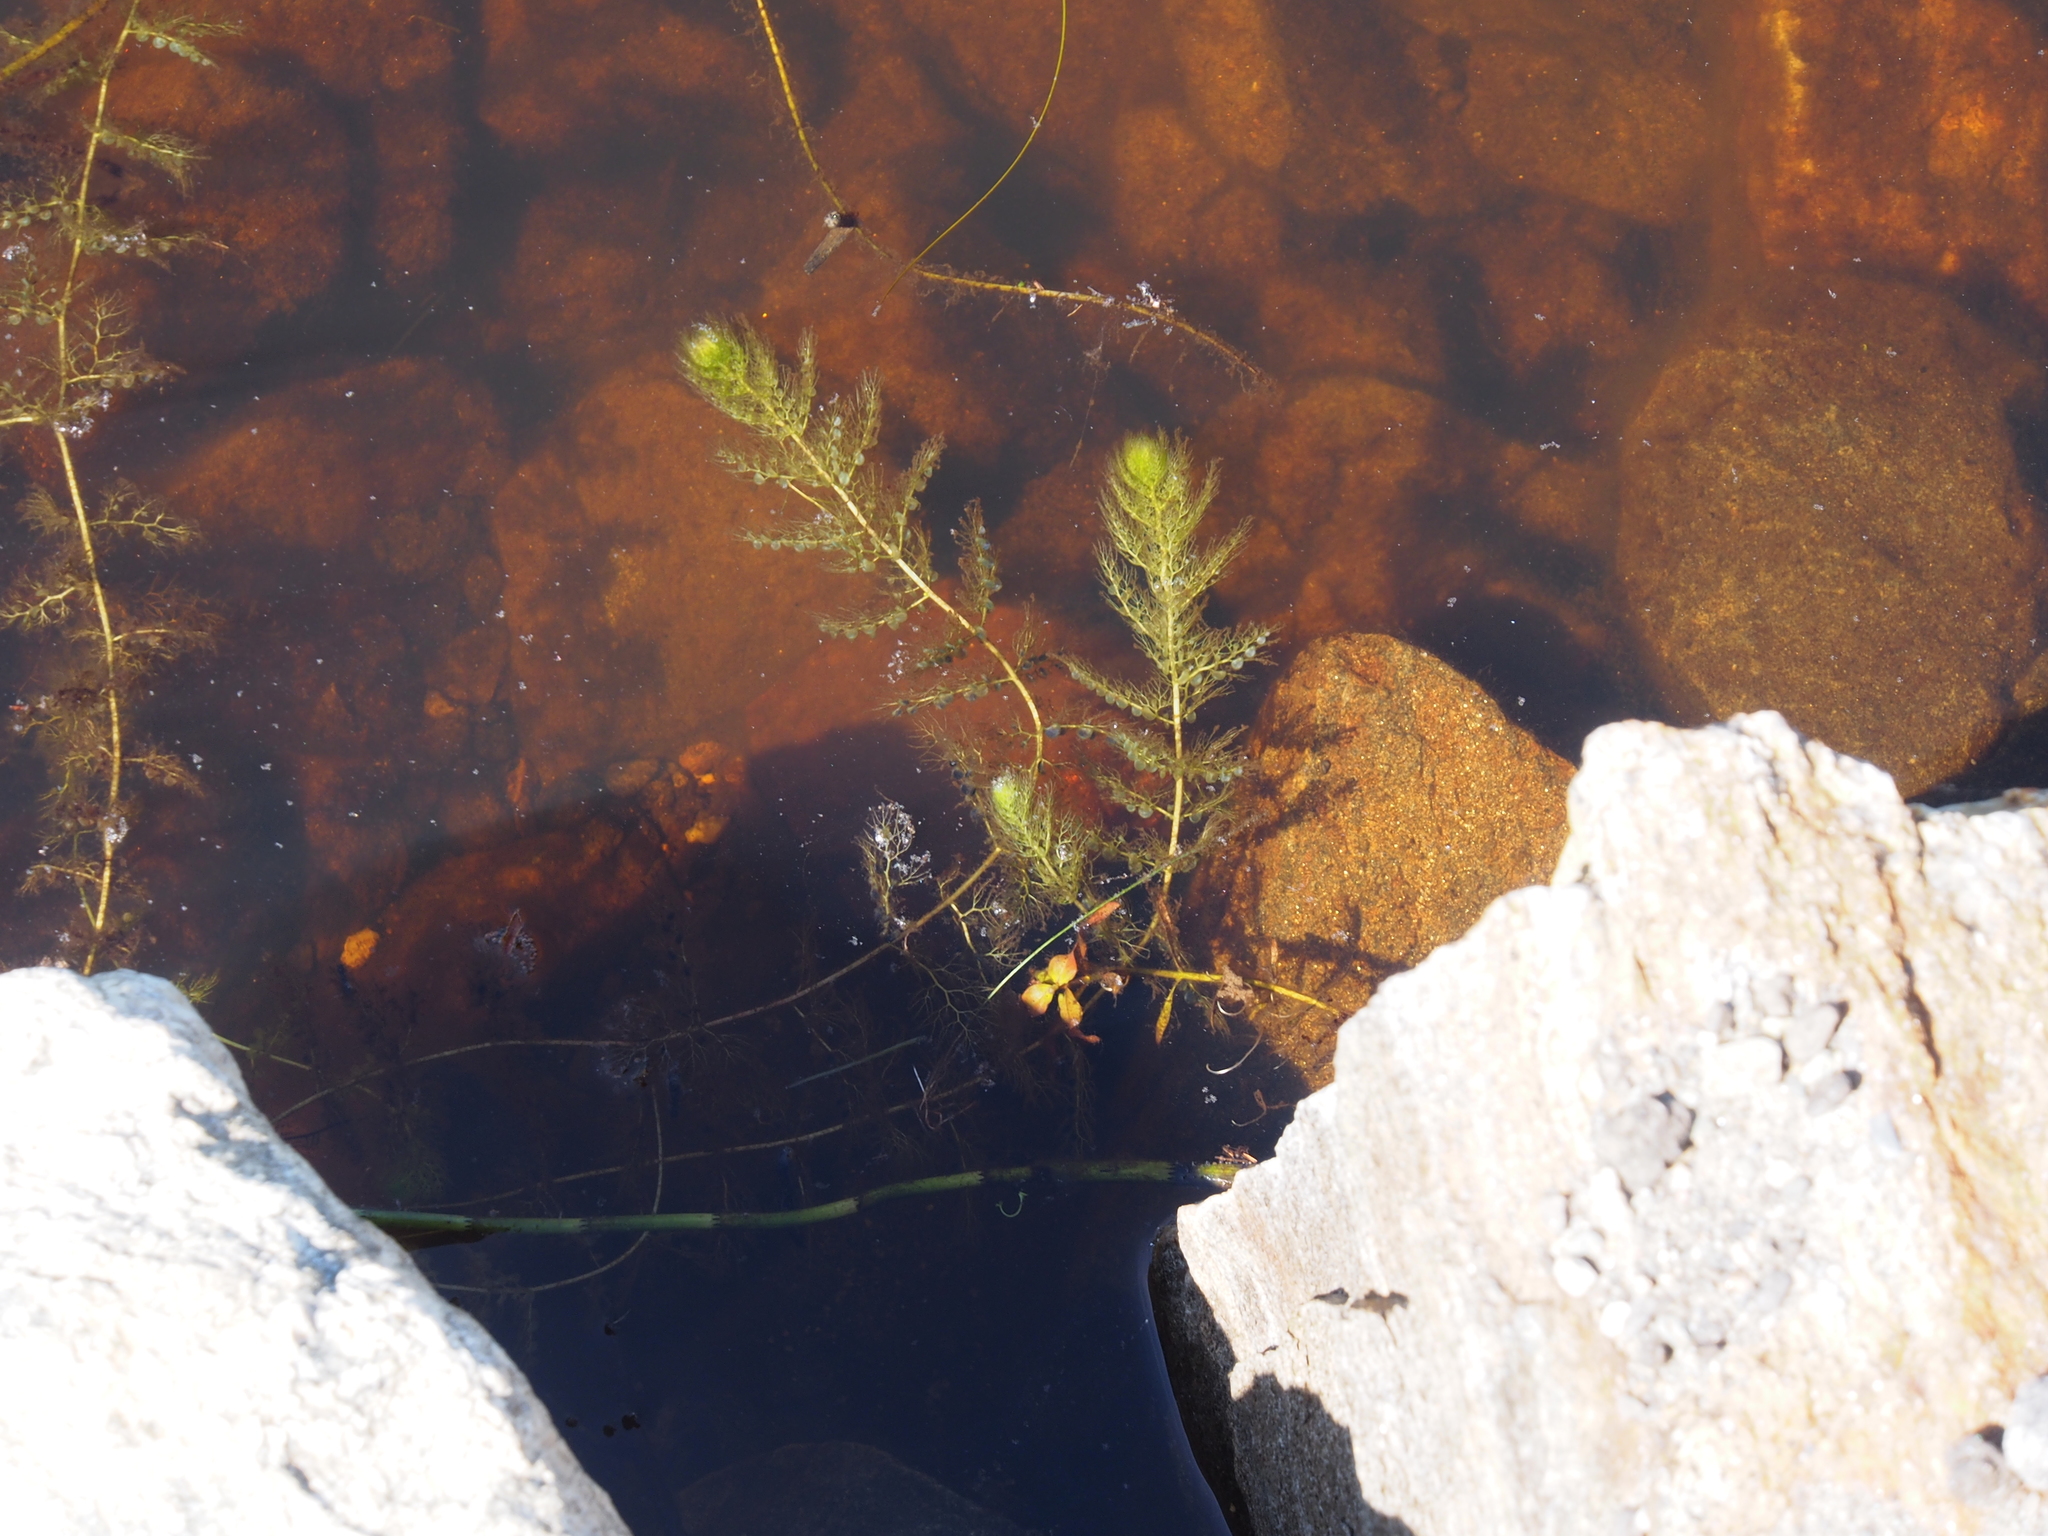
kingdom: Plantae
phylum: Tracheophyta
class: Magnoliopsida
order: Lamiales
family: Lentibulariaceae
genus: Utricularia
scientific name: Utricularia macrorhiza
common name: Common bladderwort
